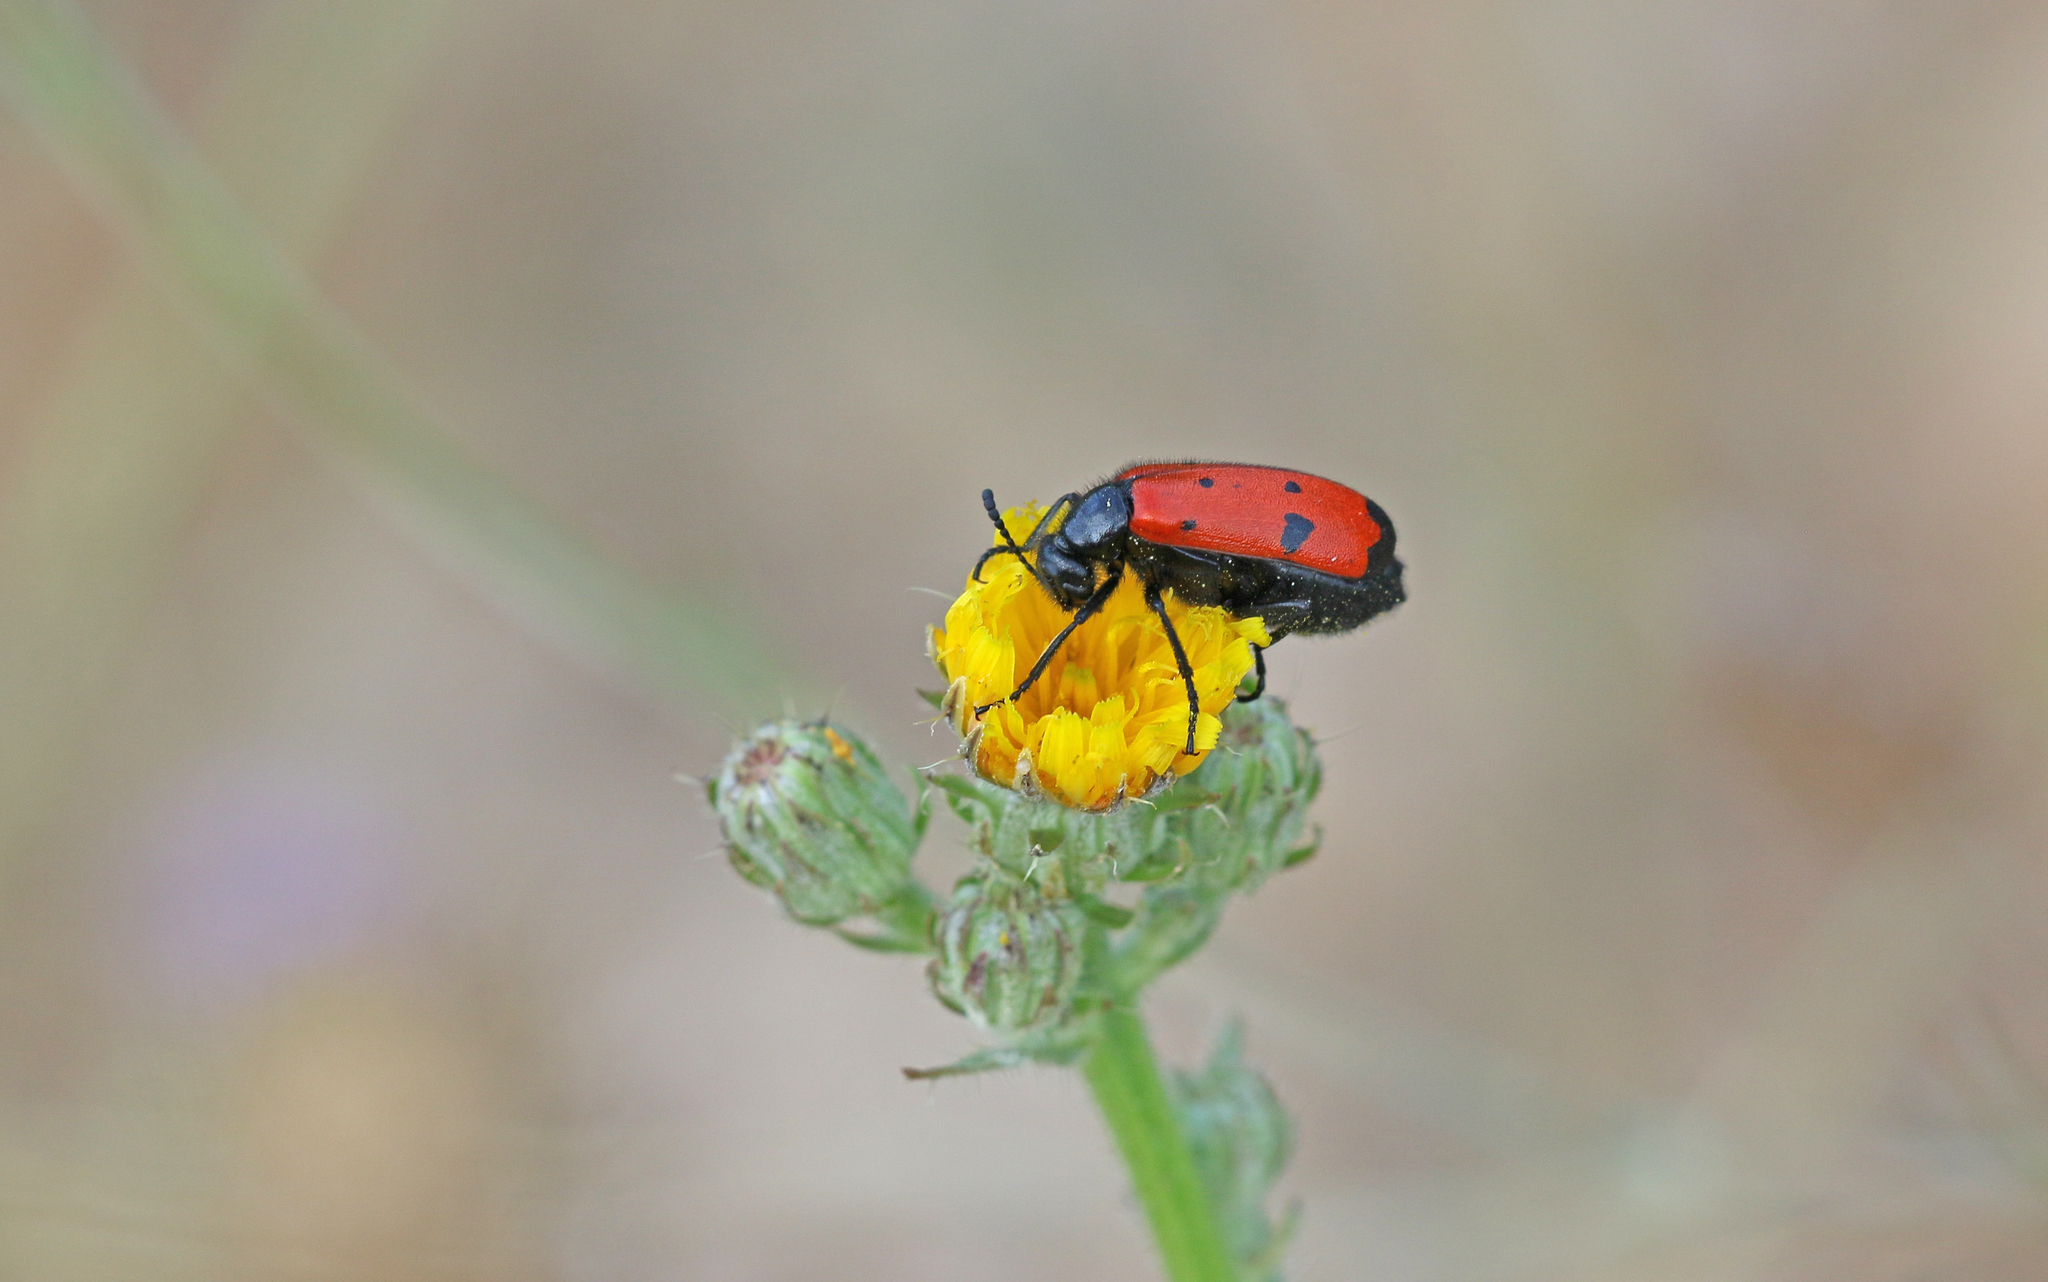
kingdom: Animalia
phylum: Arthropoda
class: Insecta
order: Coleoptera
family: Meloidae
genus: Mylabris
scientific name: Mylabris quadripunctata
